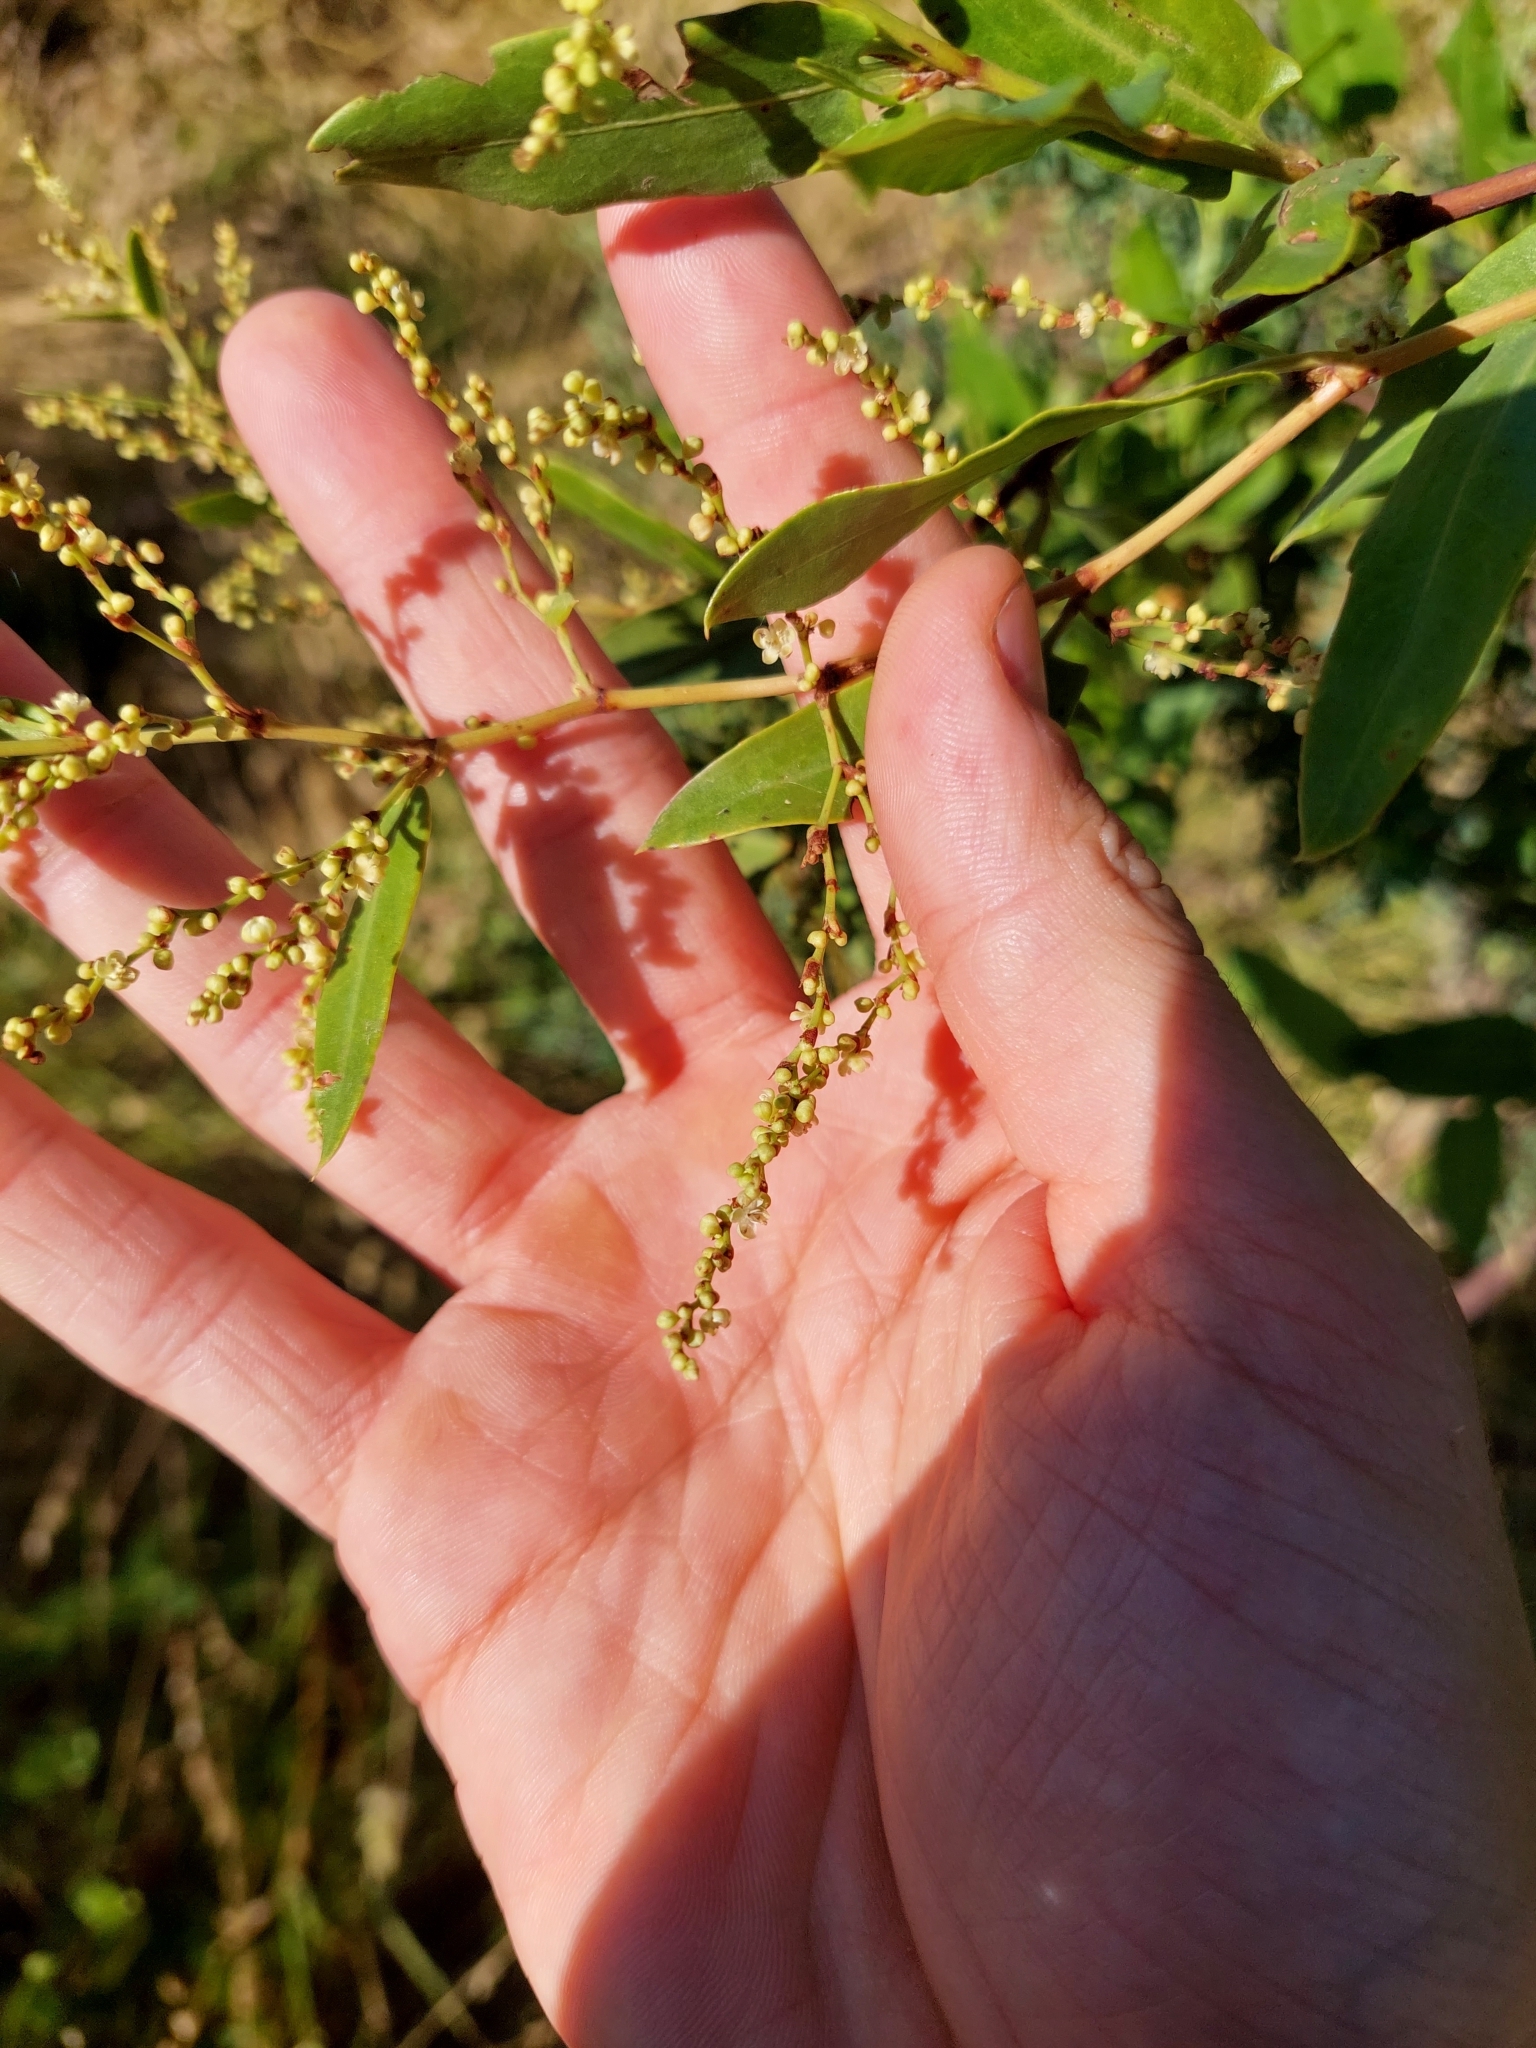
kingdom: Plantae
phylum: Tracheophyta
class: Magnoliopsida
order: Caryophyllales
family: Polygonaceae
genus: Muehlenbeckia
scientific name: Muehlenbeckia sagittifolia
